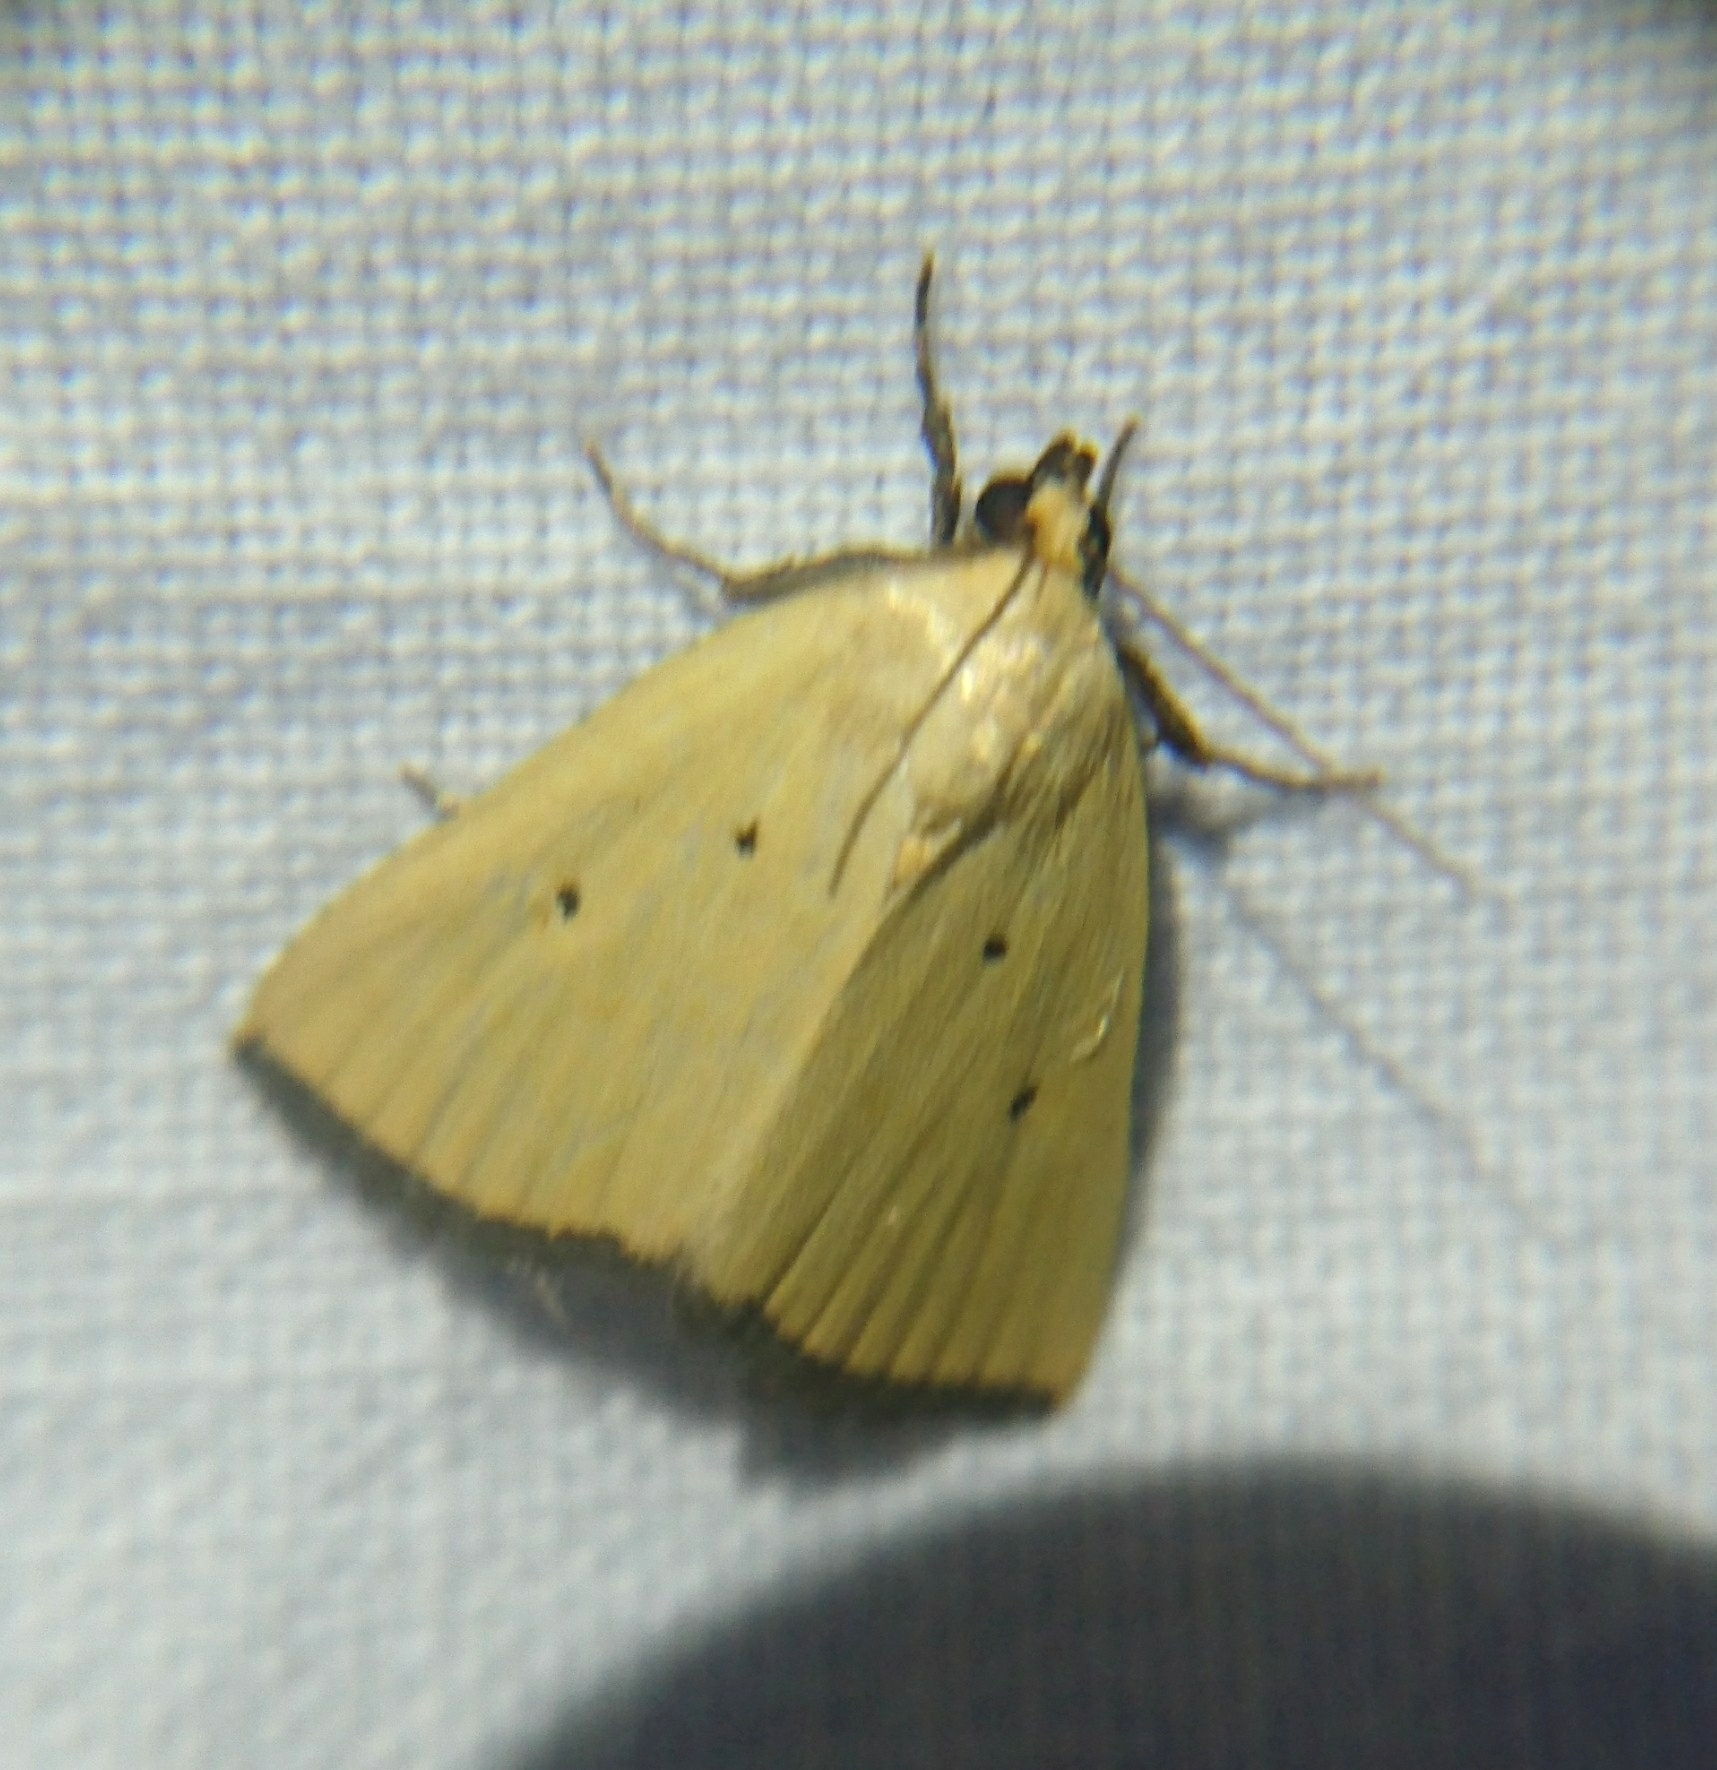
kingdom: Animalia
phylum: Arthropoda
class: Insecta
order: Lepidoptera
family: Noctuidae
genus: Marimatha
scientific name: Marimatha nigrofimbria
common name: Black-bordered lemon moth
